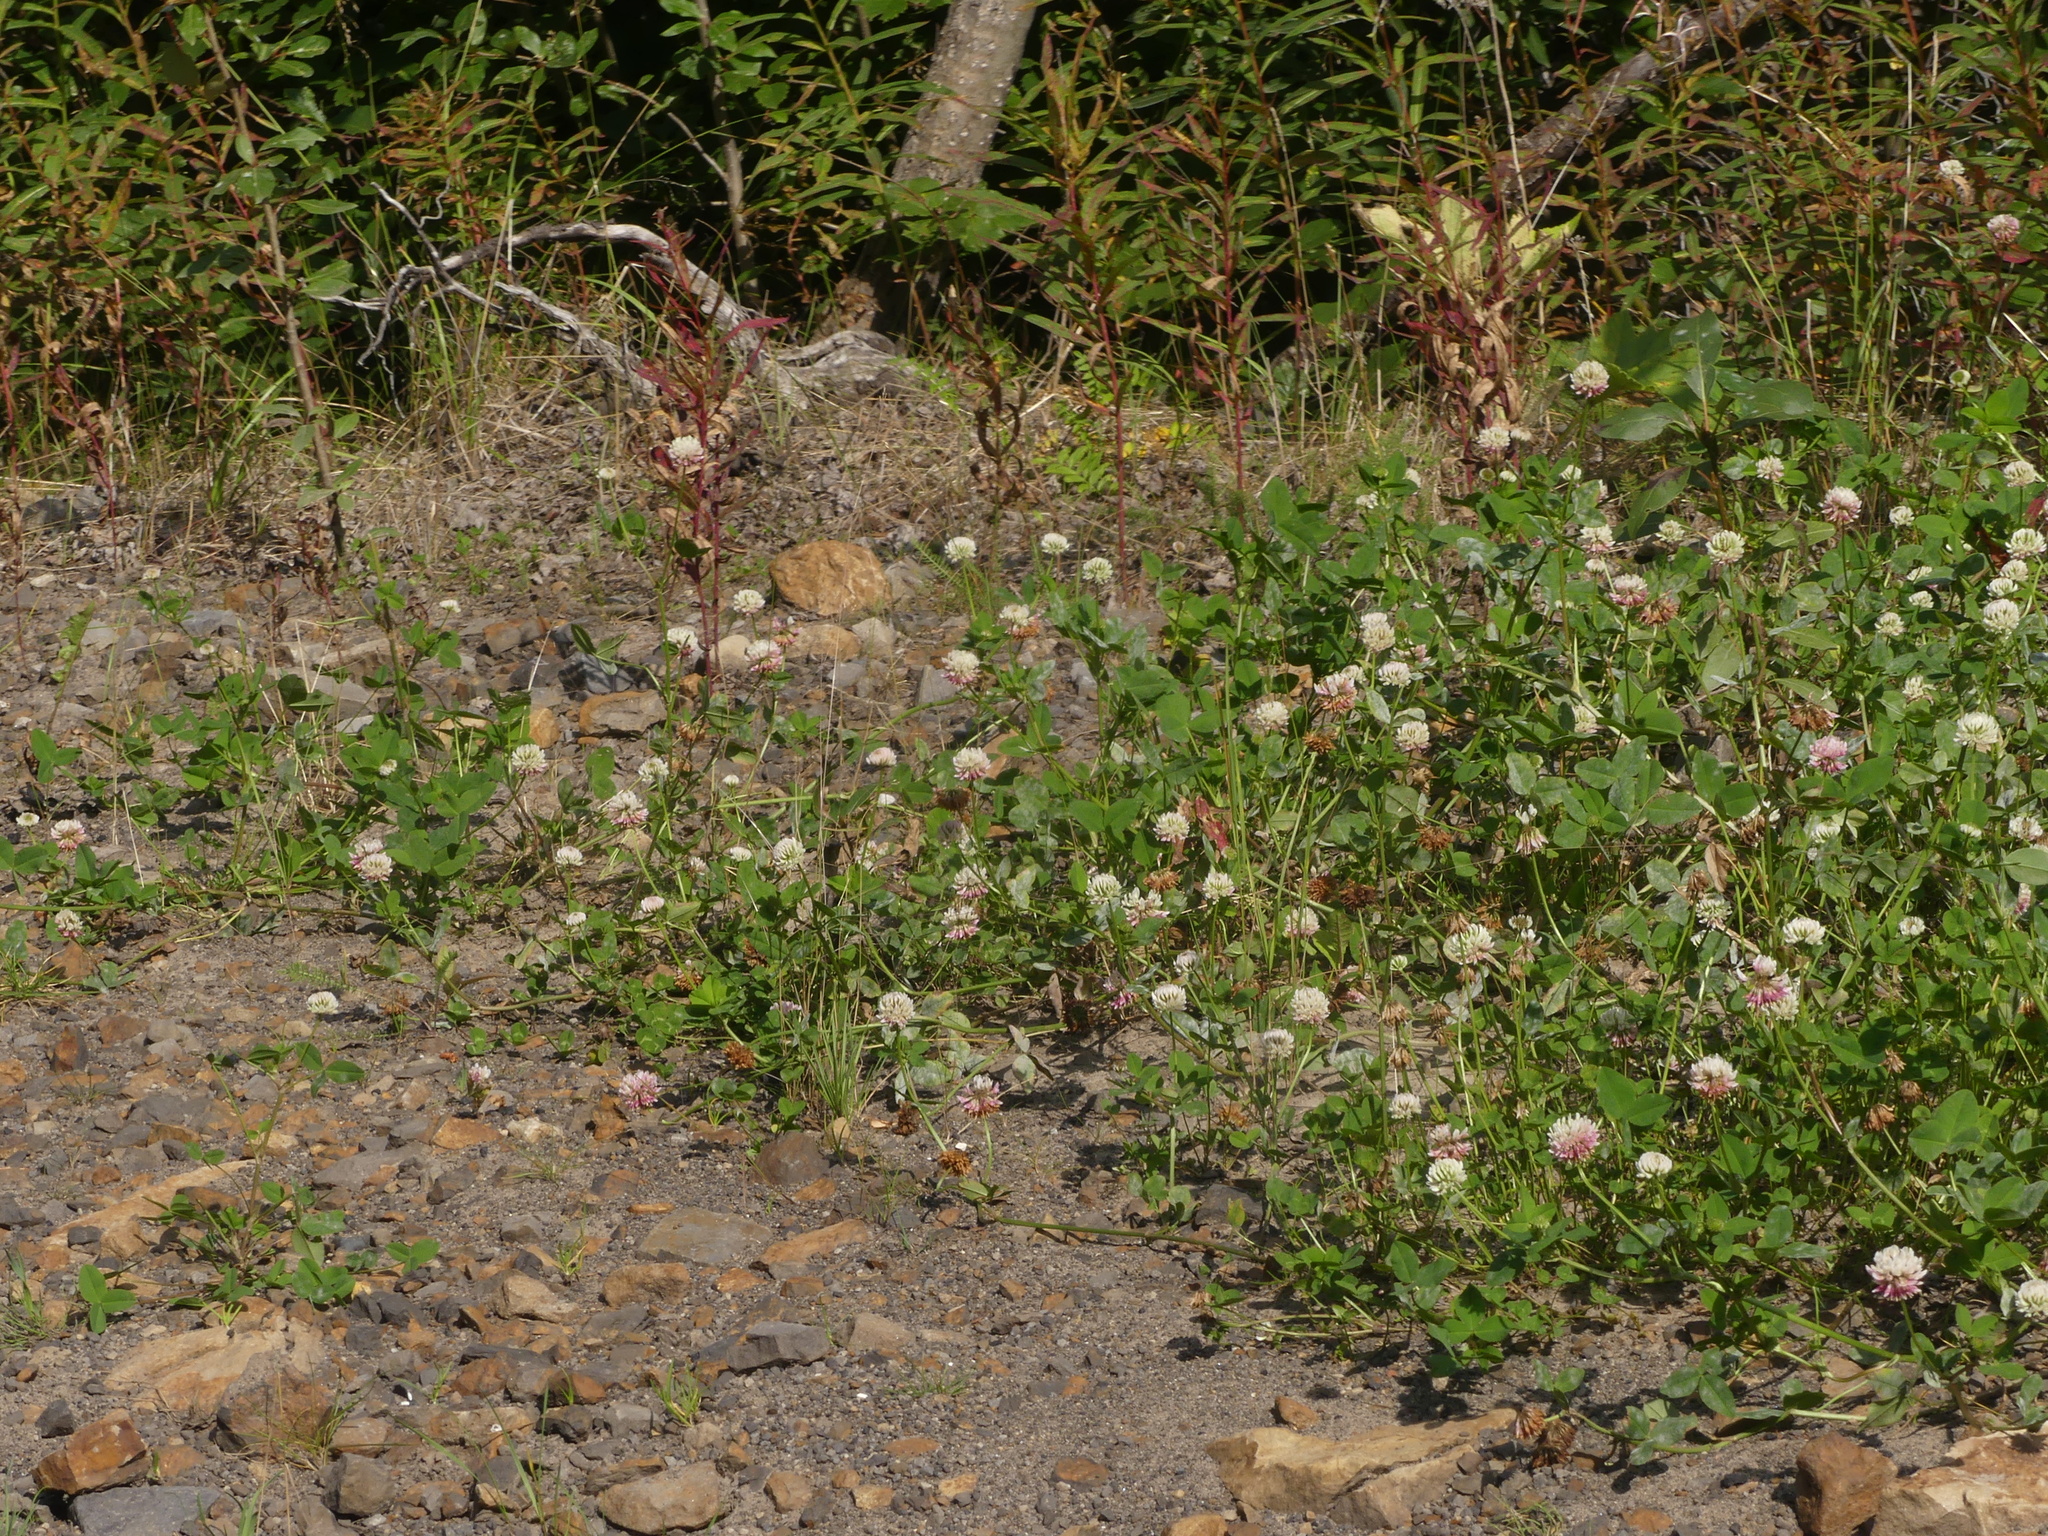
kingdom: Plantae
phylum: Tracheophyta
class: Magnoliopsida
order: Fabales
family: Fabaceae
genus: Trifolium
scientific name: Trifolium hybridum
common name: Alsike clover
